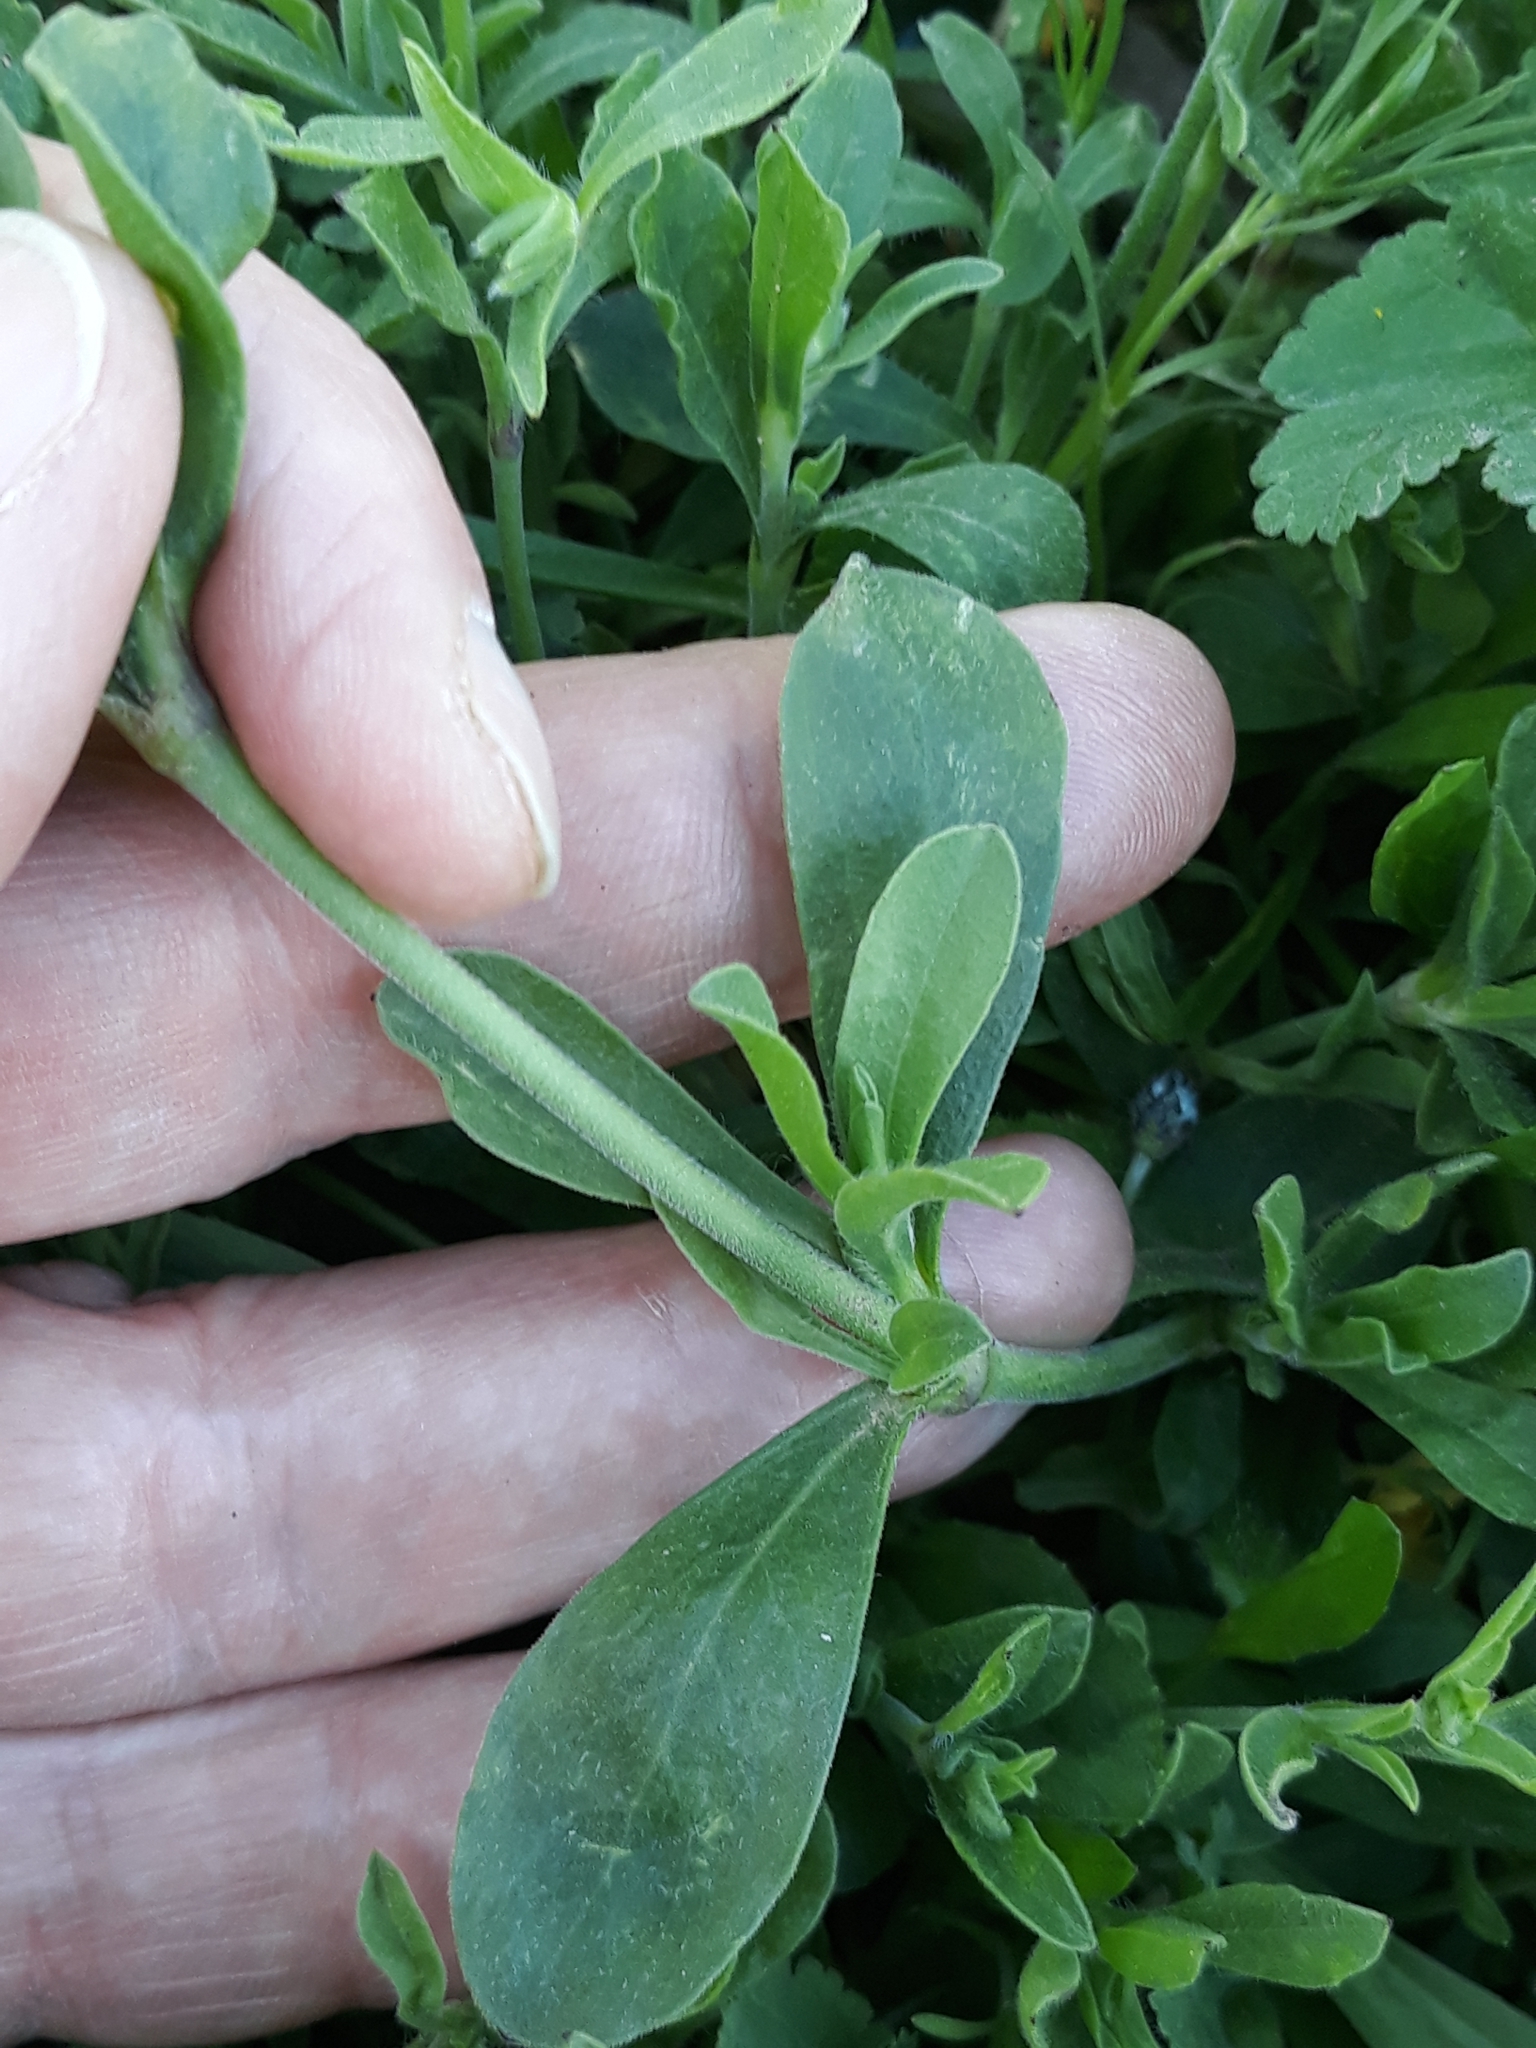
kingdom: Plantae
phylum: Tracheophyta
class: Magnoliopsida
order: Caryophyllales
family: Caryophyllaceae
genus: Silene
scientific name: Silene colorata
